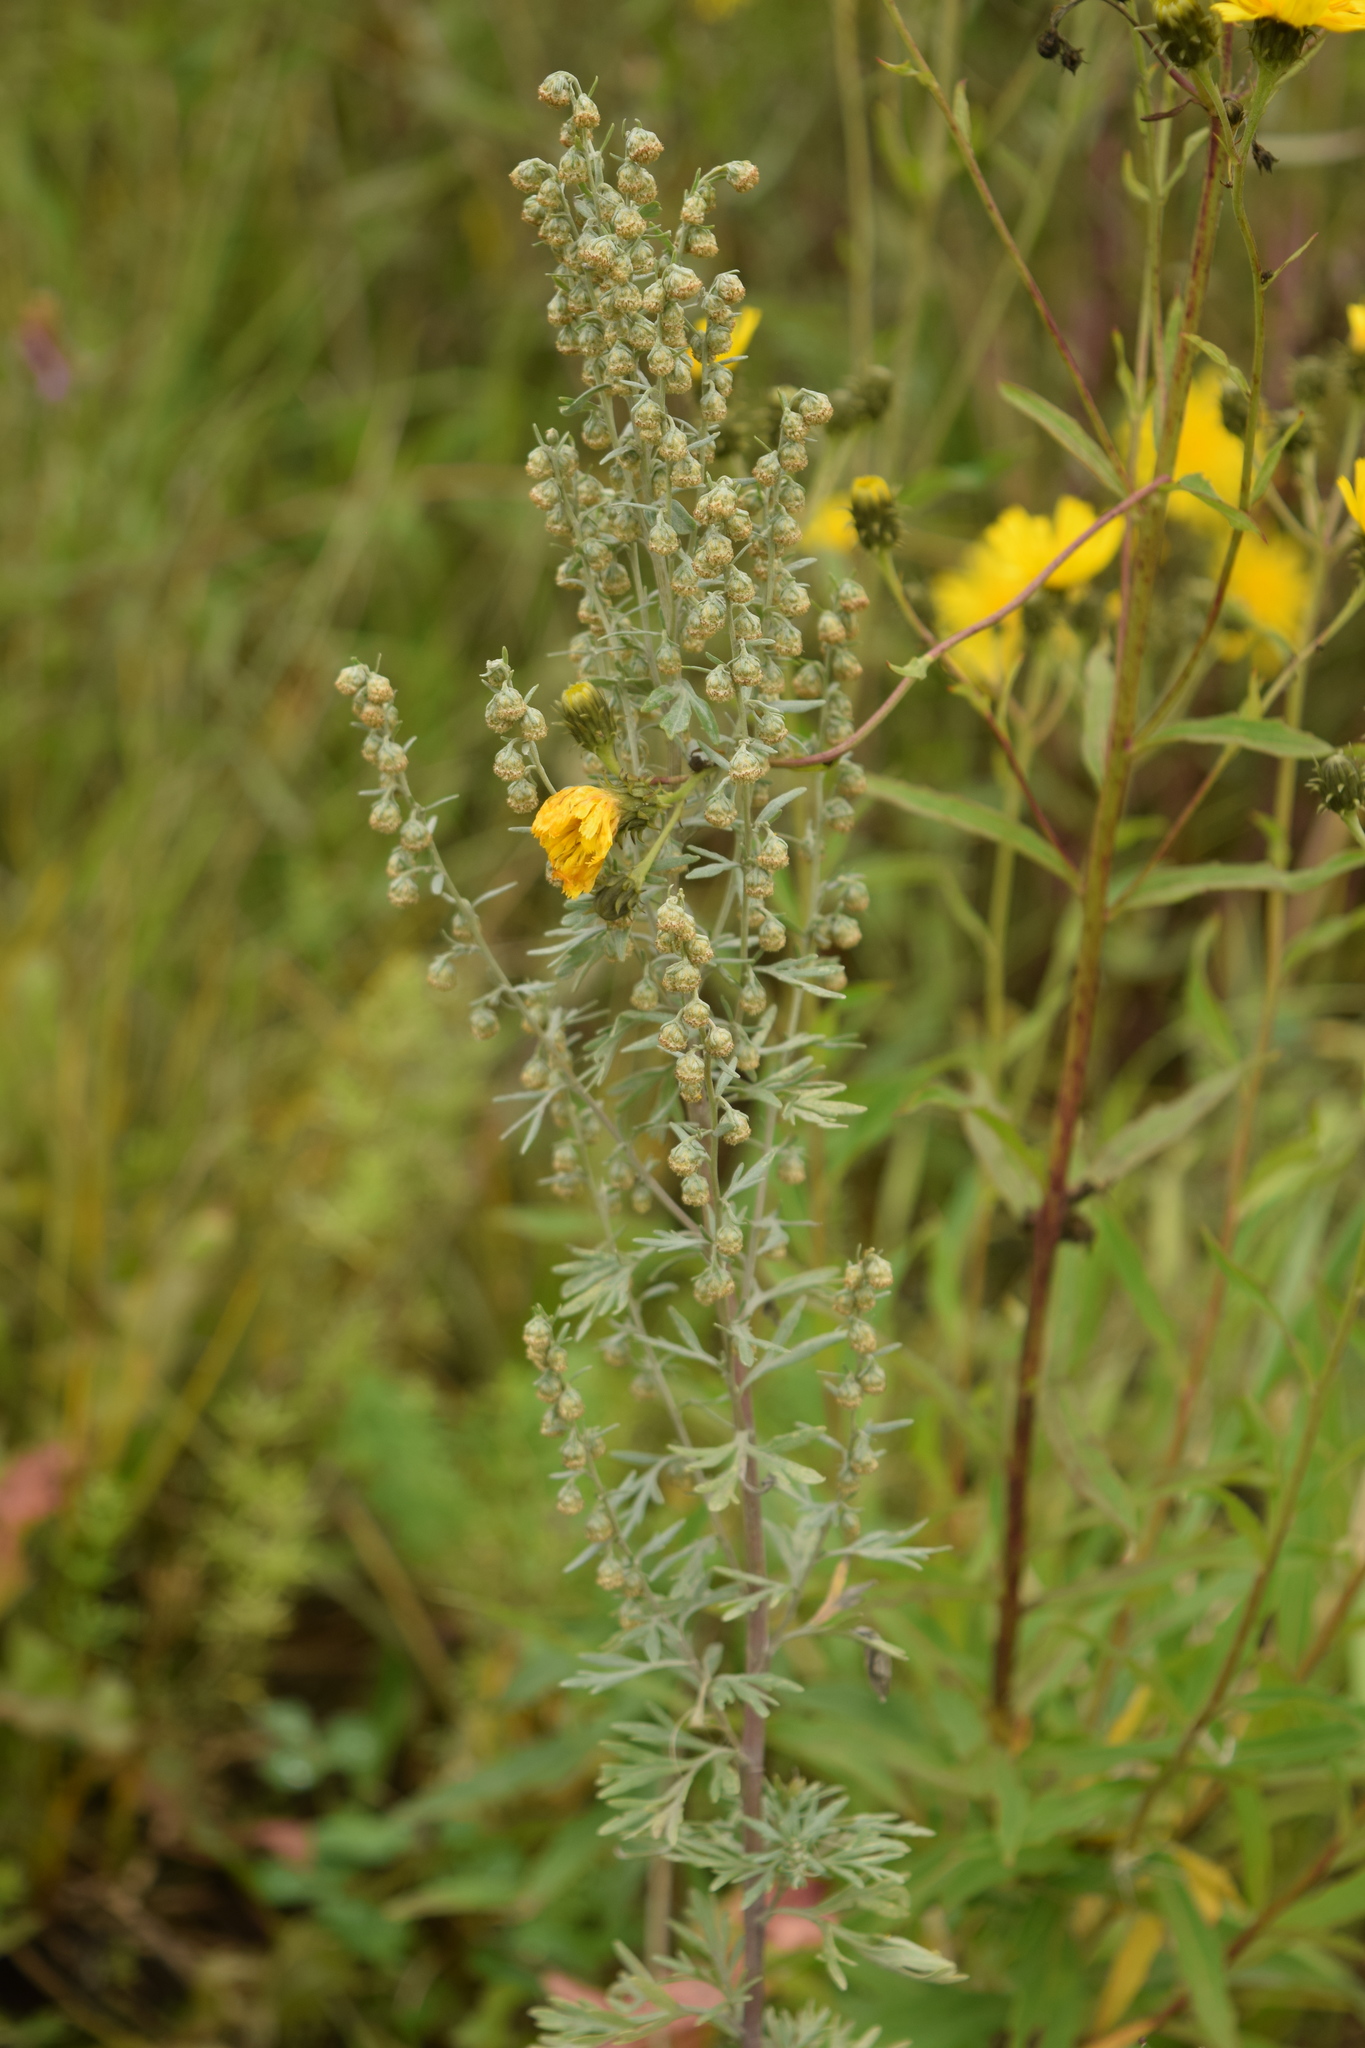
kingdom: Plantae
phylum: Tracheophyta
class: Magnoliopsida
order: Asterales
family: Asteraceae
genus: Artemisia
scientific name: Artemisia absinthium
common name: Wormwood
